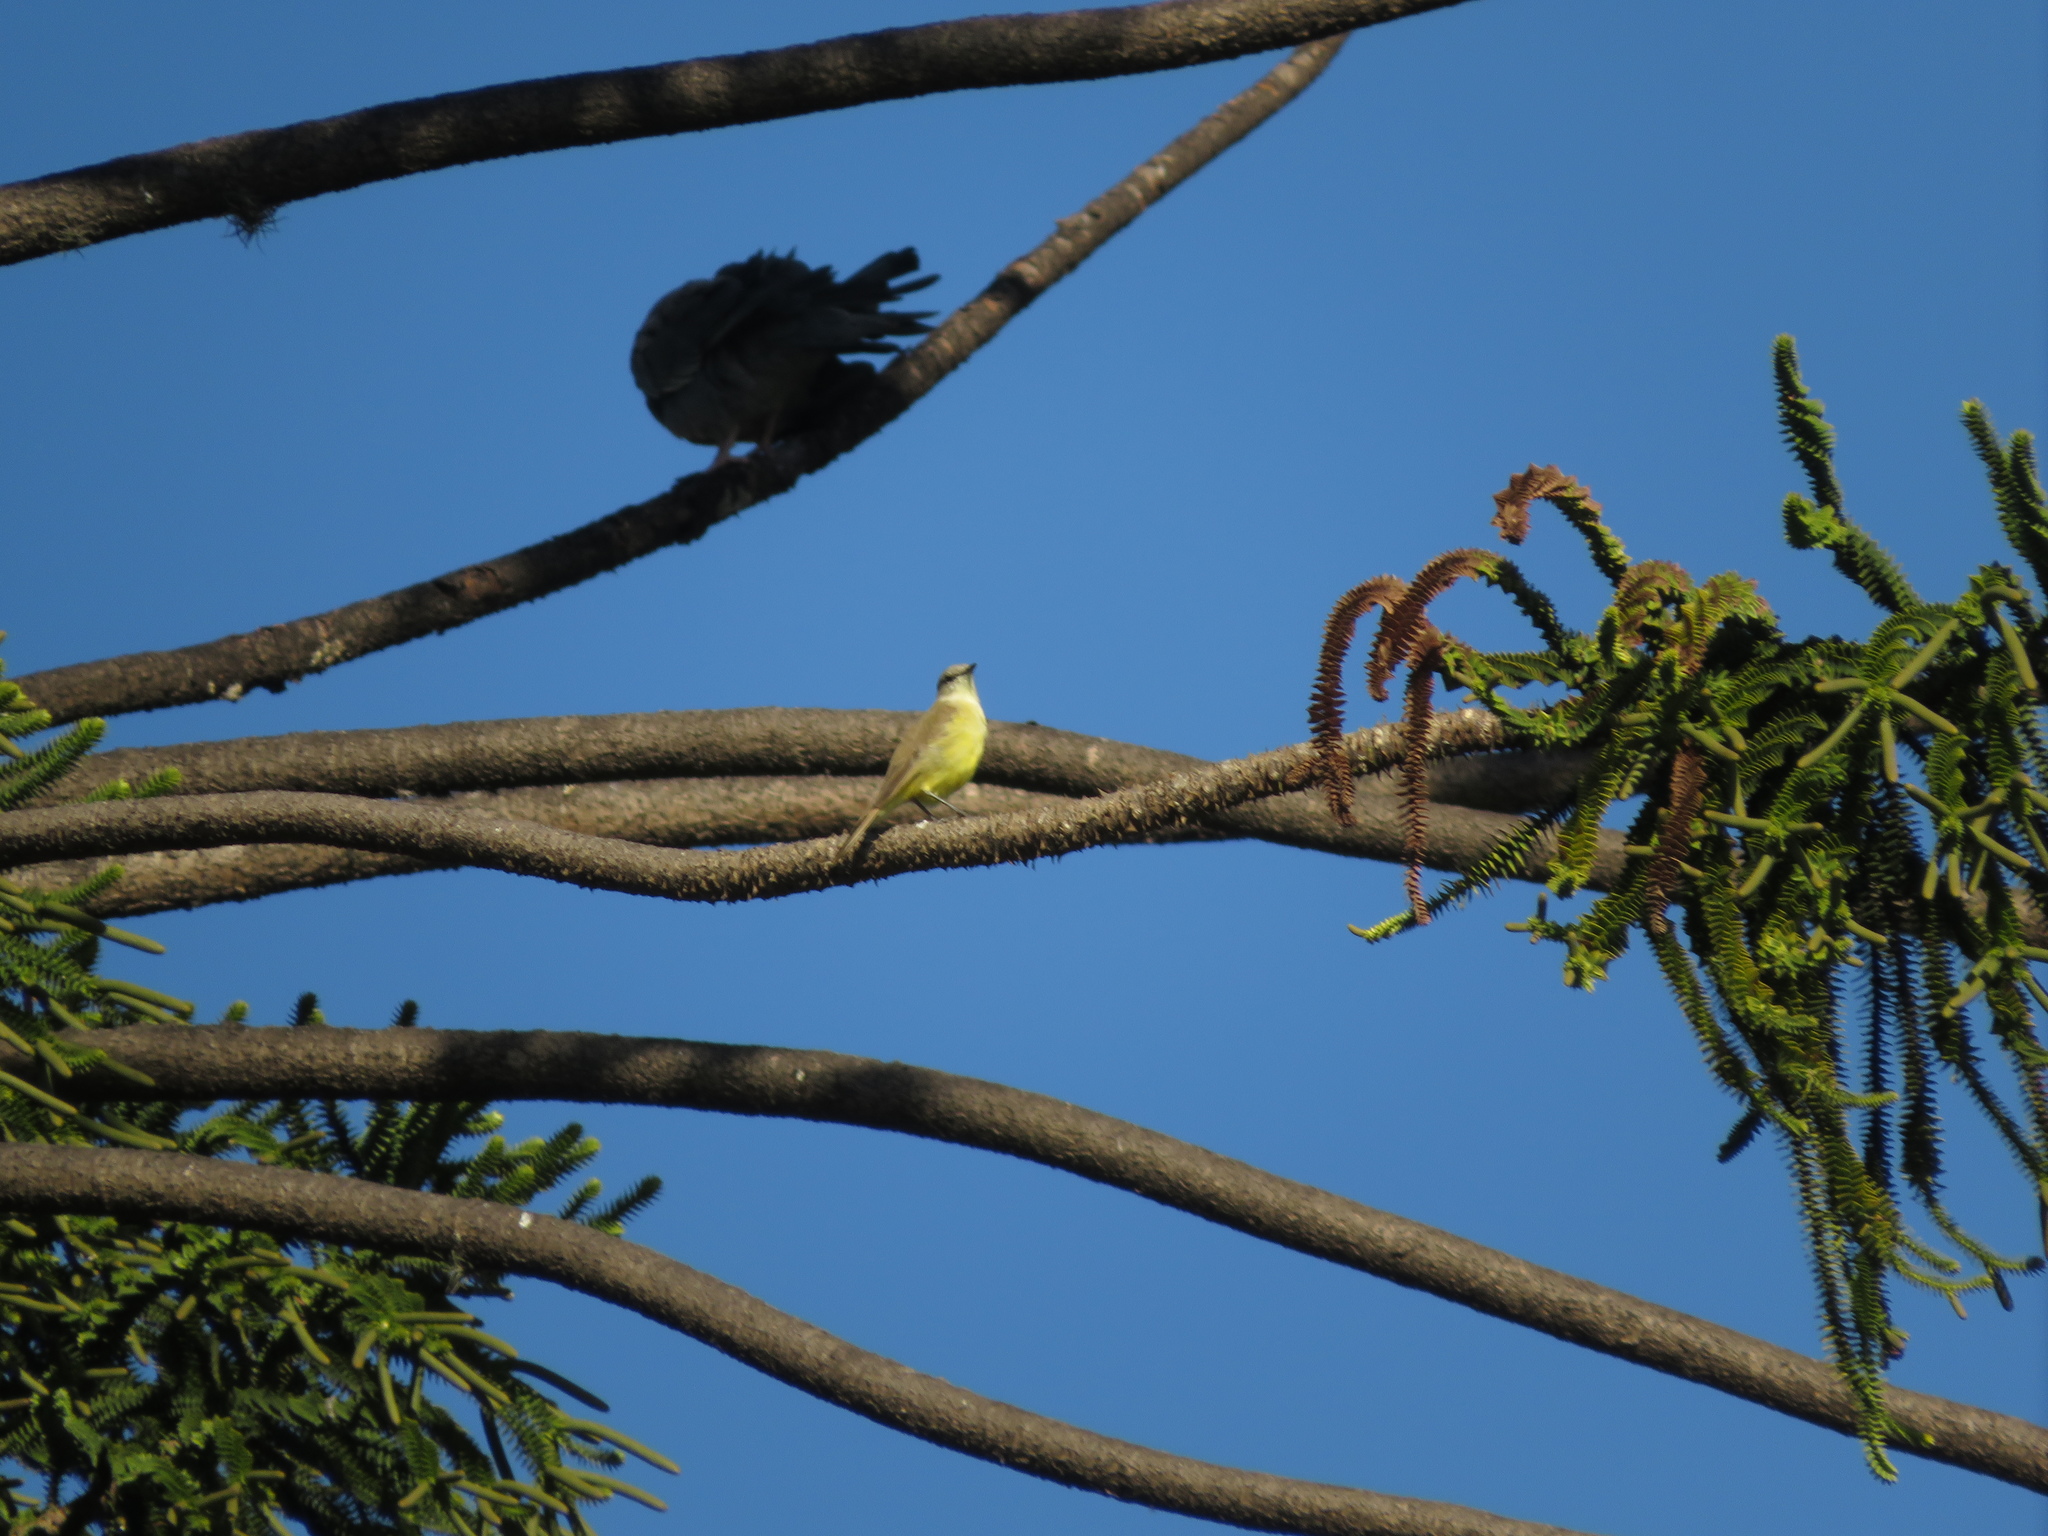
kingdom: Animalia
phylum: Chordata
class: Aves
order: Passeriformes
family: Tyrannidae
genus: Machetornis
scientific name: Machetornis rixosa
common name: Cattle tyrant
